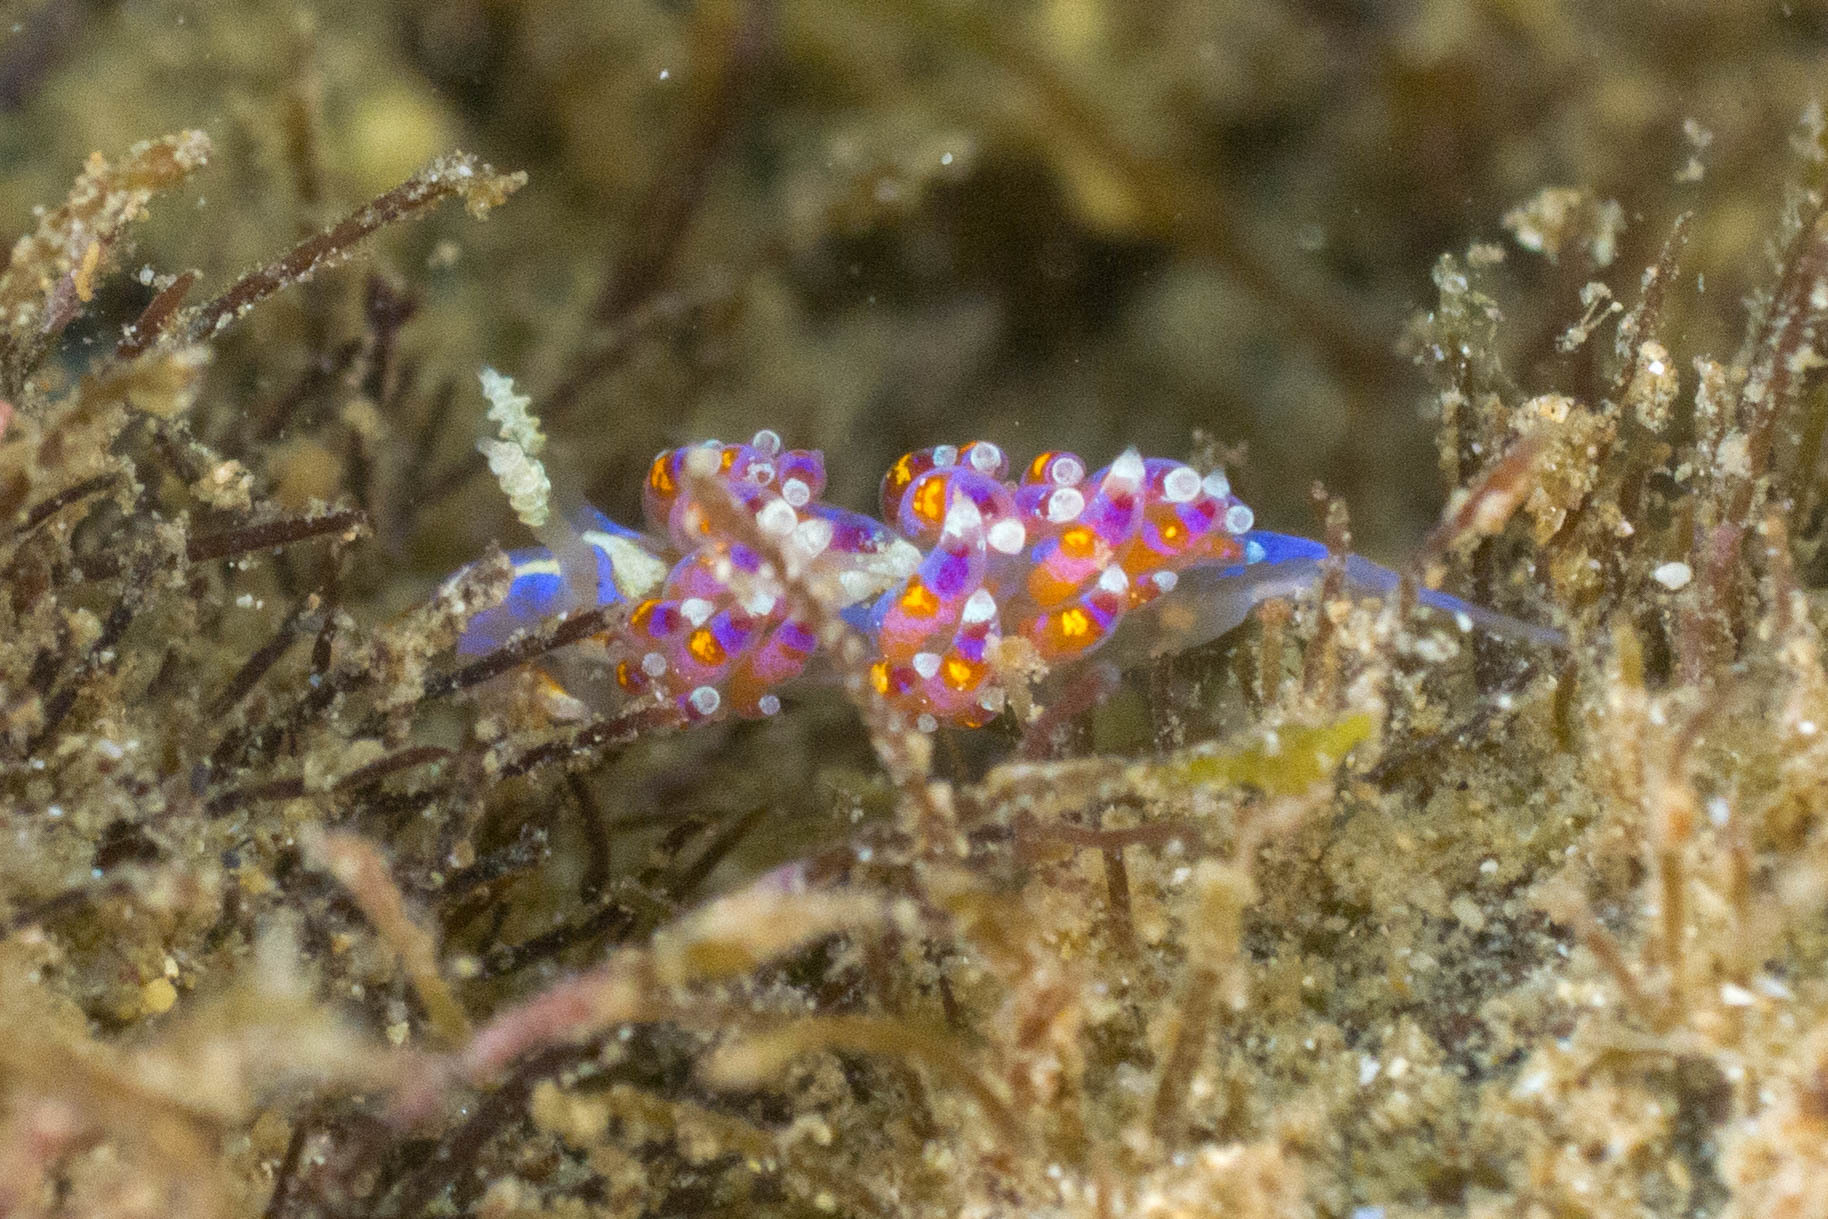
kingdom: Animalia
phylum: Mollusca
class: Gastropoda
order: Nudibranchia
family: Facelinidae
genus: Austraeolis
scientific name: Austraeolis ornata
